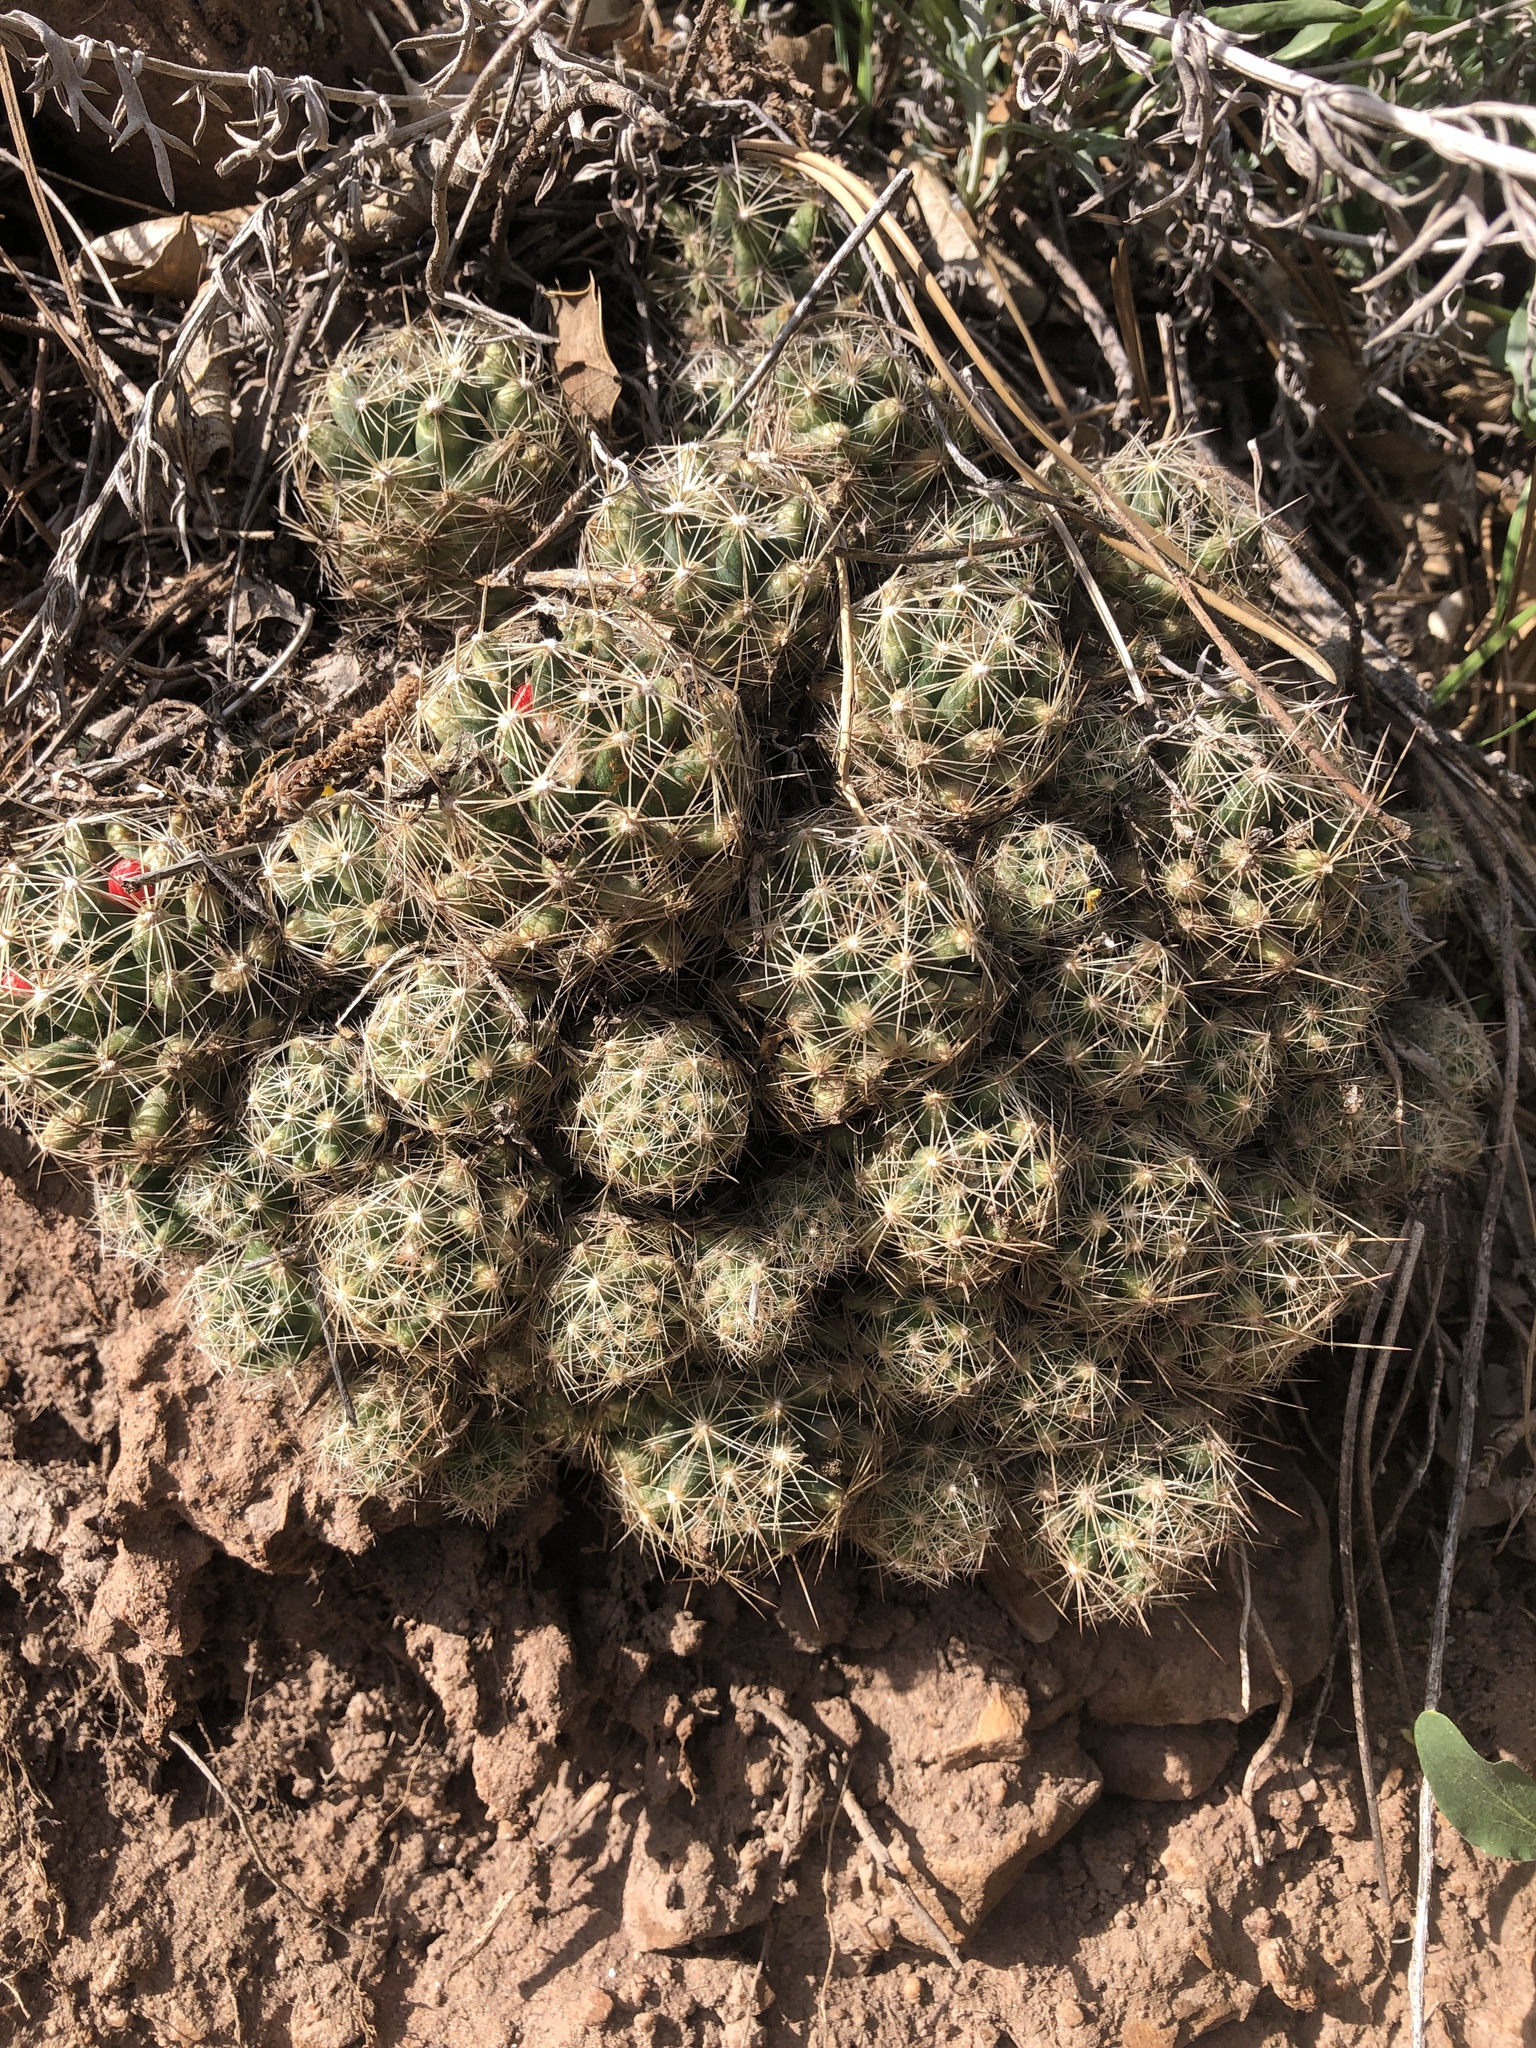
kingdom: Plantae
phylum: Tracheophyta
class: Magnoliopsida
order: Caryophyllales
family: Cactaceae
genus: Pelecyphora
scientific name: Pelecyphora missouriensis
